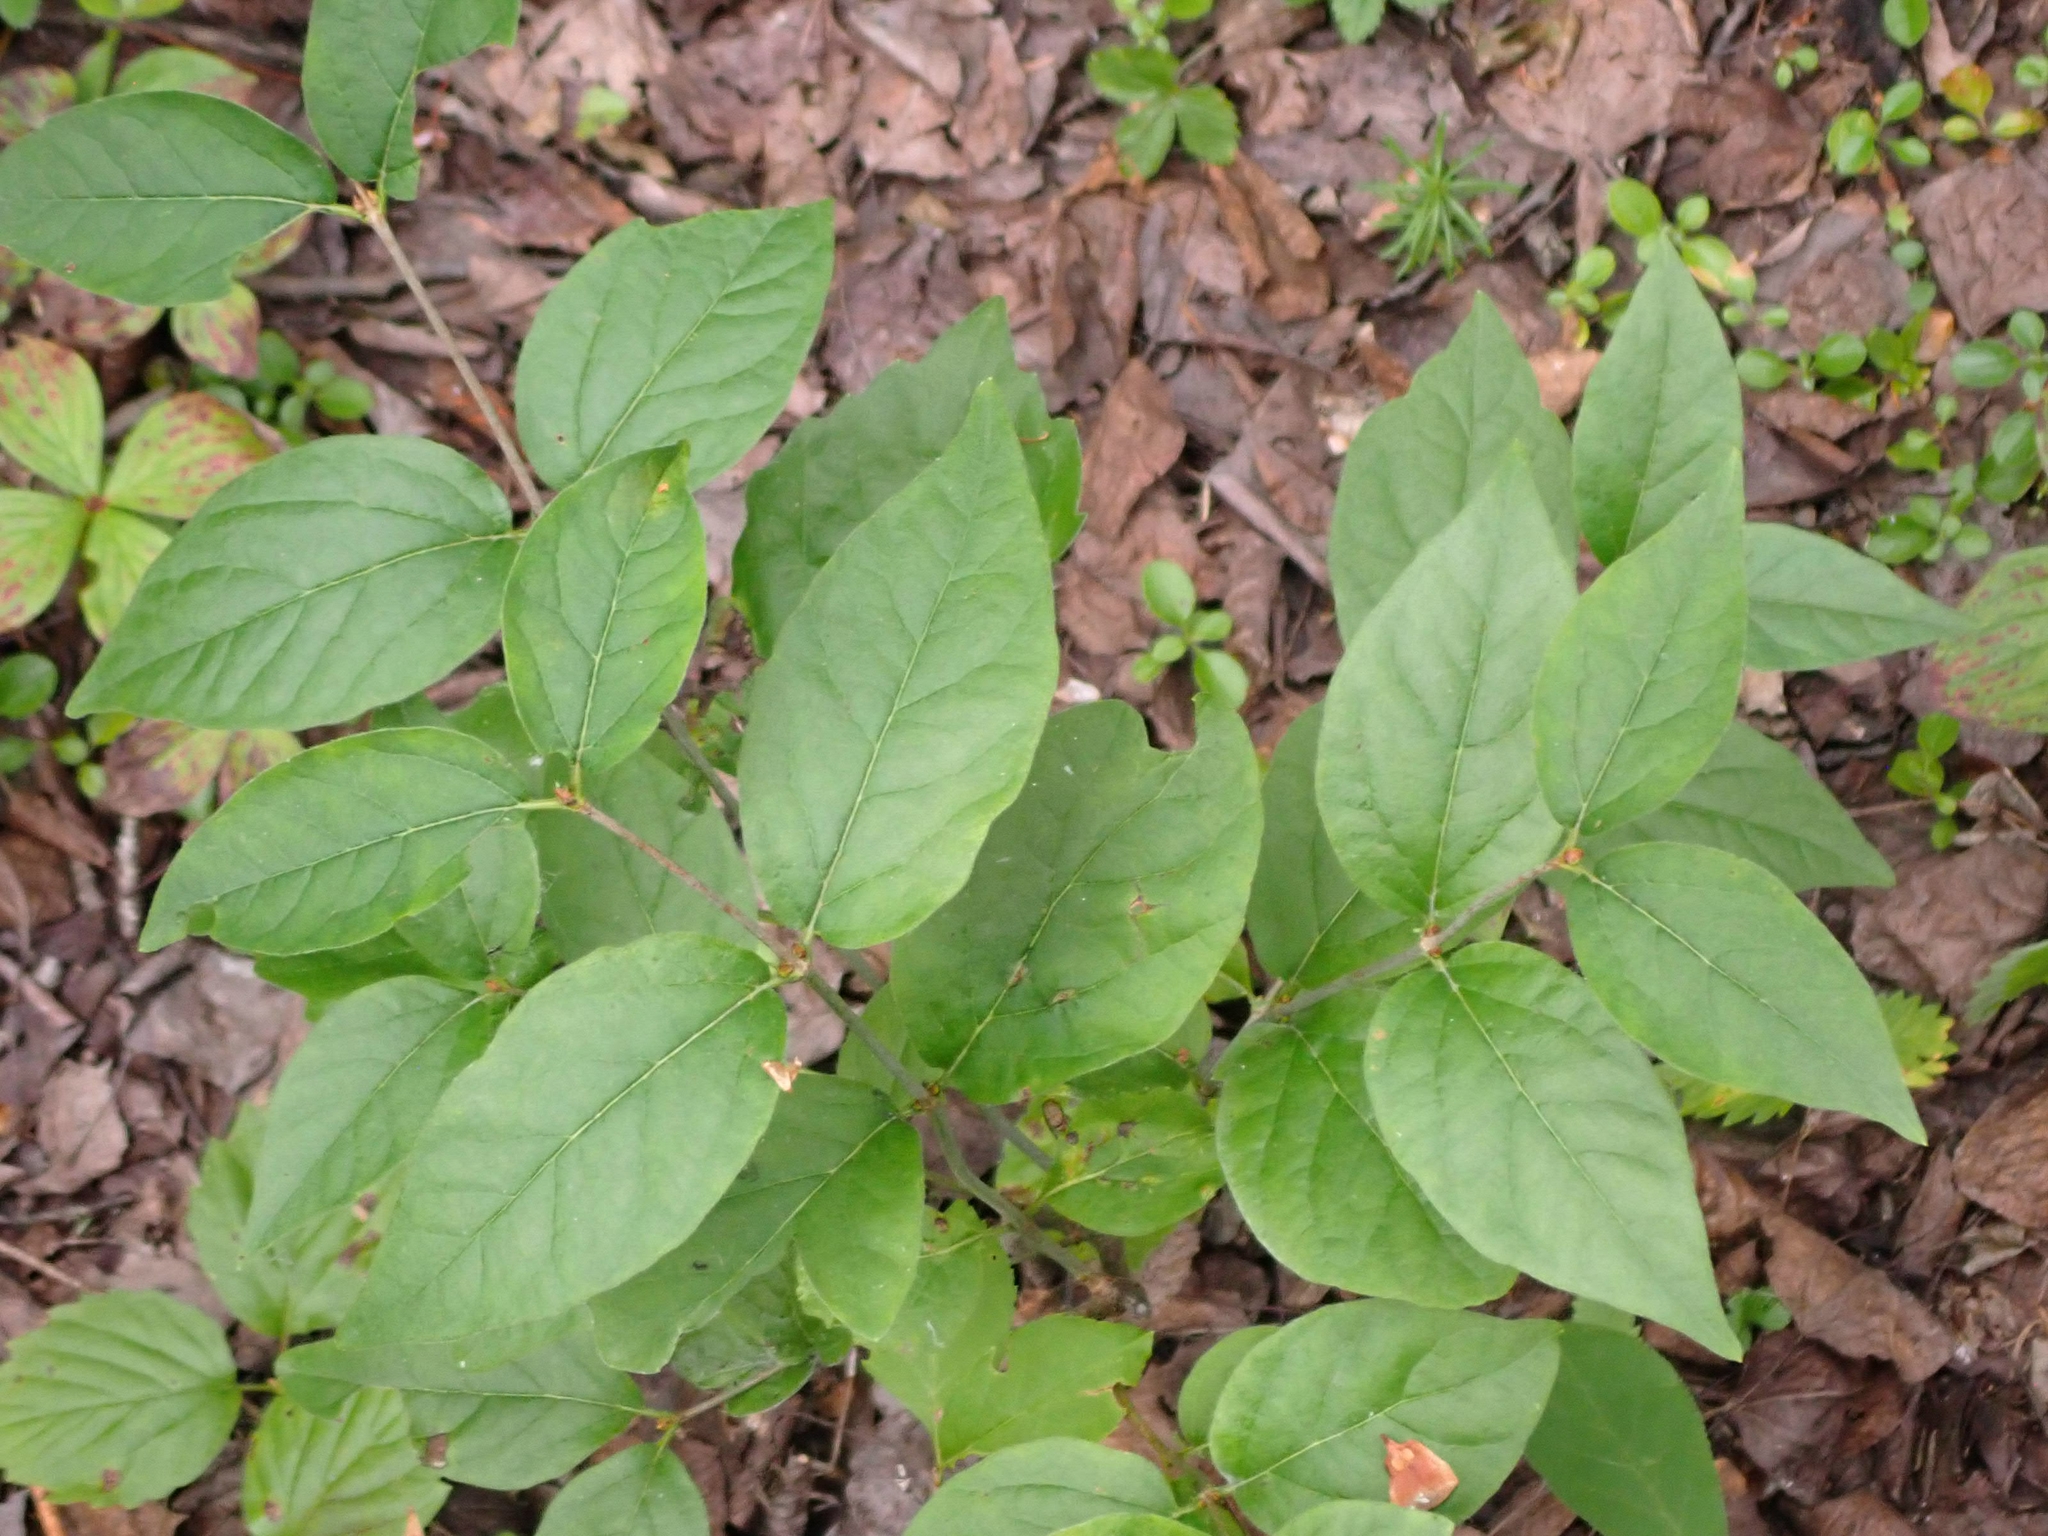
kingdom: Plantae
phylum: Tracheophyta
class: Magnoliopsida
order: Dipsacales
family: Caprifoliaceae
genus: Diervilla
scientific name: Diervilla lonicera
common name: Bush-honeysuckle
